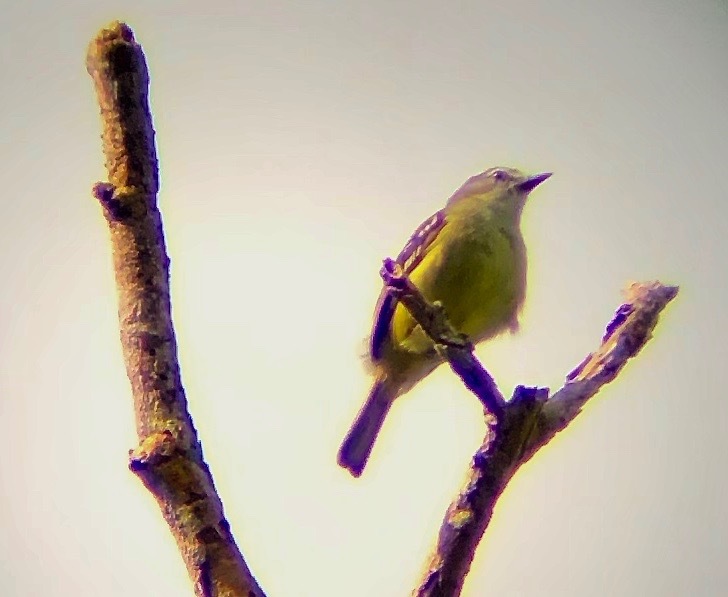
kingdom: Animalia
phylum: Chordata
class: Aves
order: Passeriformes
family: Tyrannidae
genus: Ornithion
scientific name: Ornithion inerme
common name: White-lored tyrannulet
